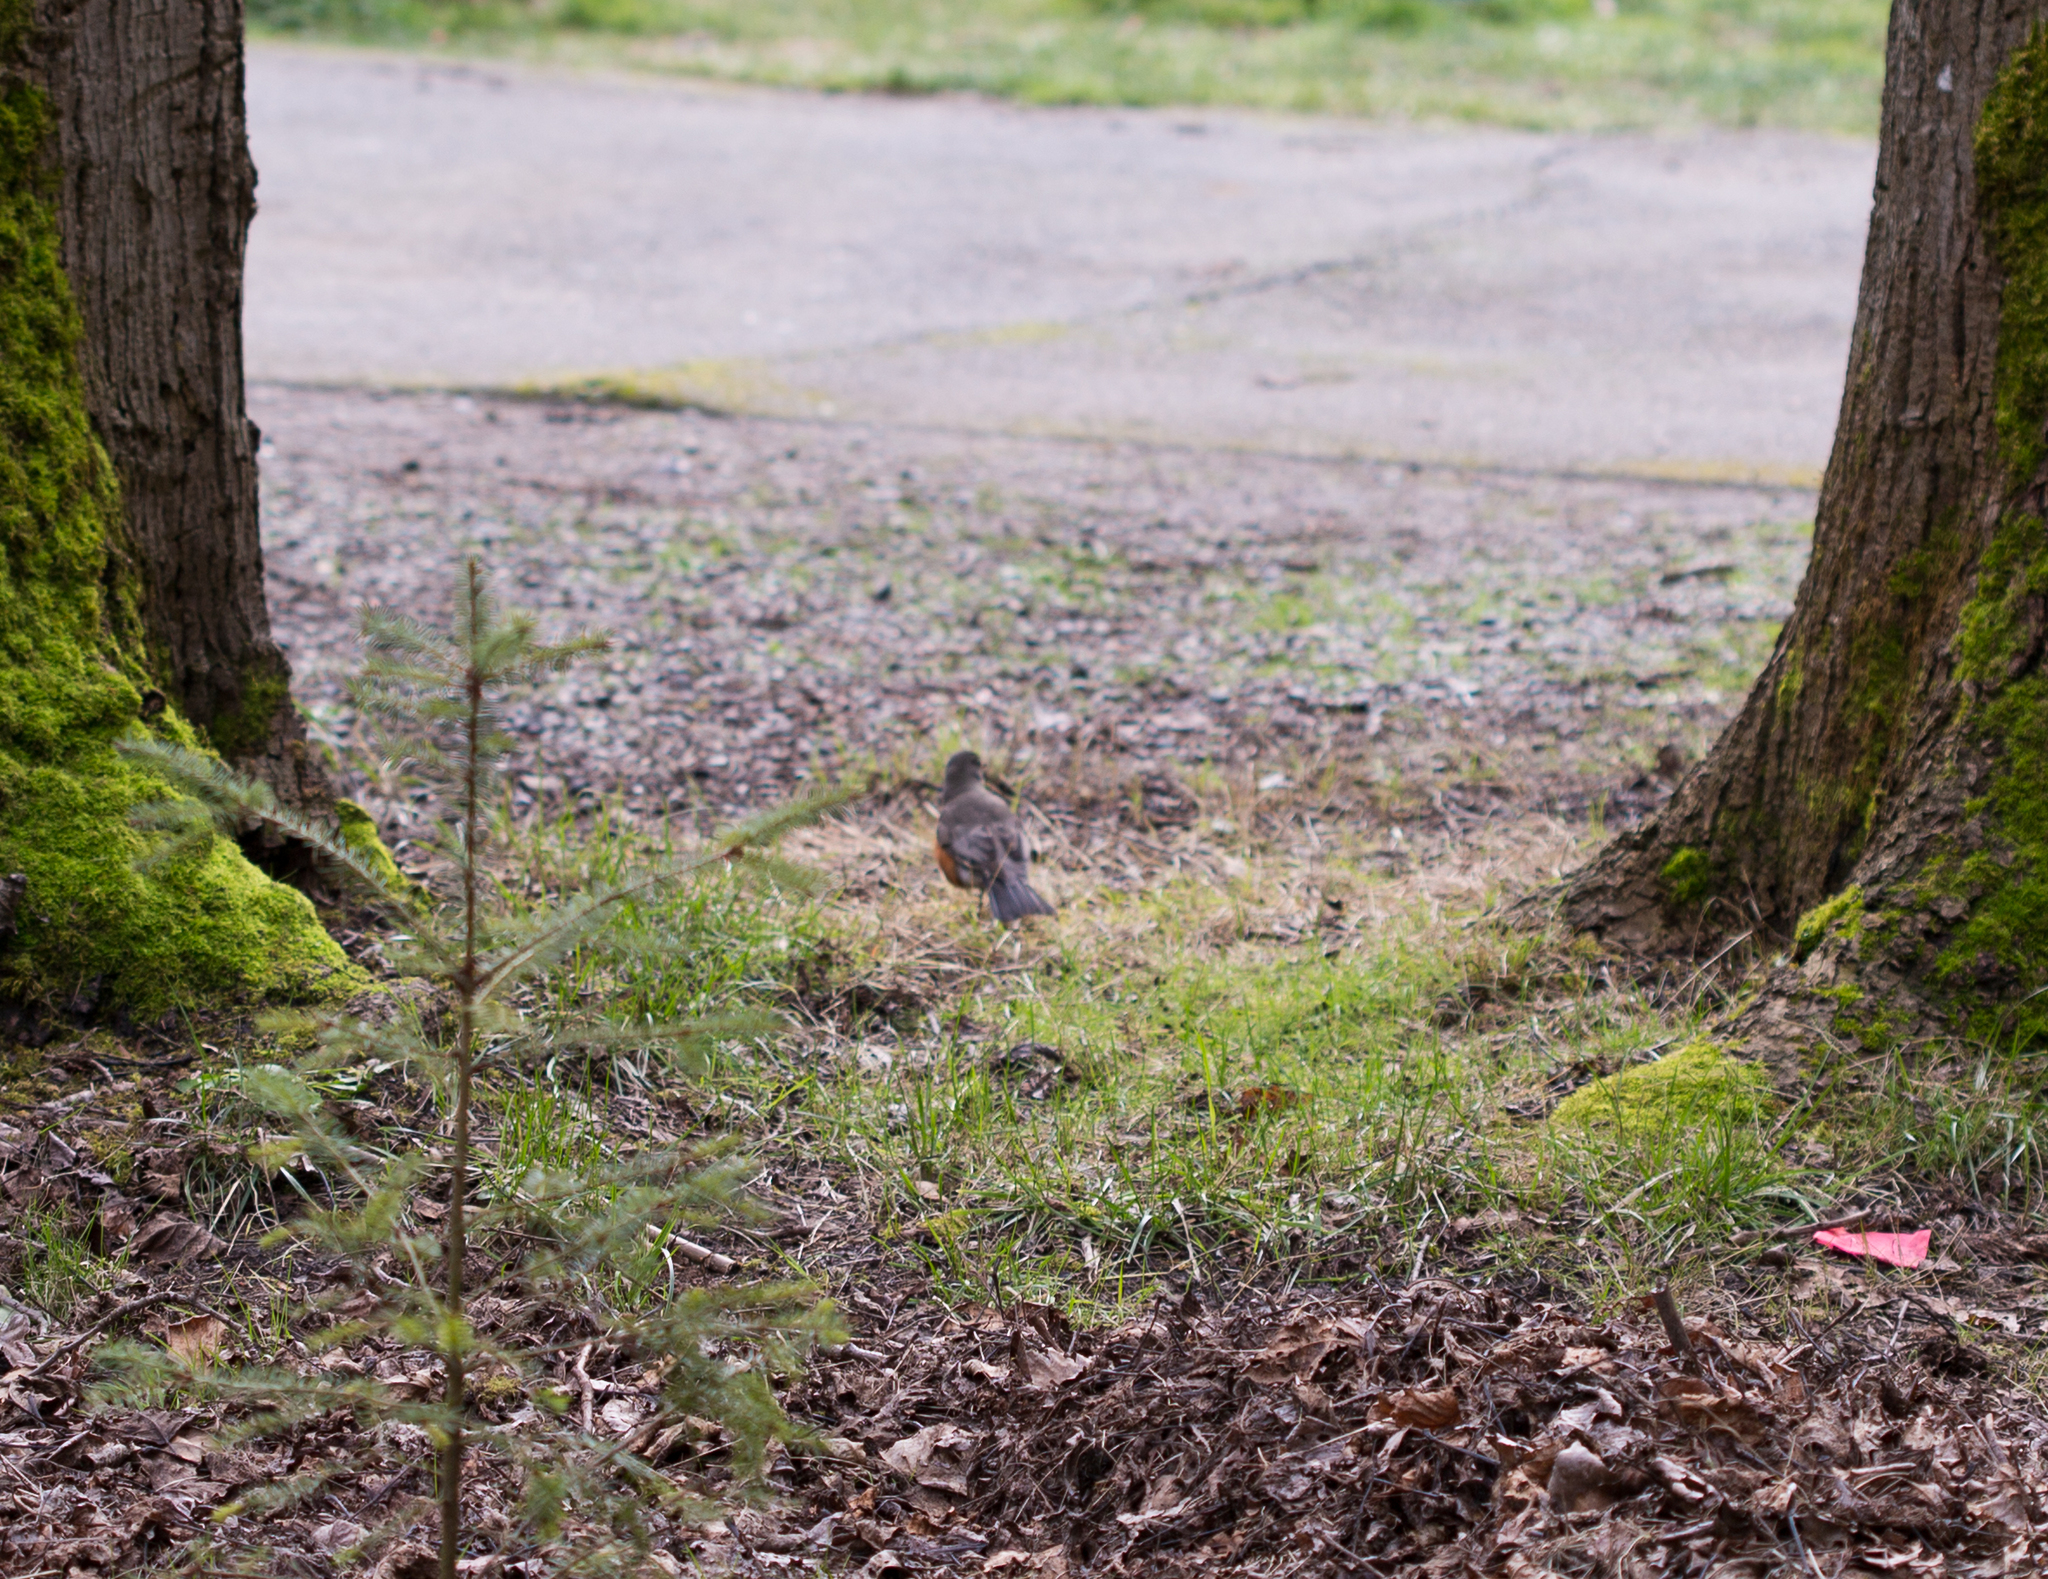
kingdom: Animalia
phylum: Chordata
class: Aves
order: Passeriformes
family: Turdidae
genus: Turdus
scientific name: Turdus migratorius
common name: American robin
